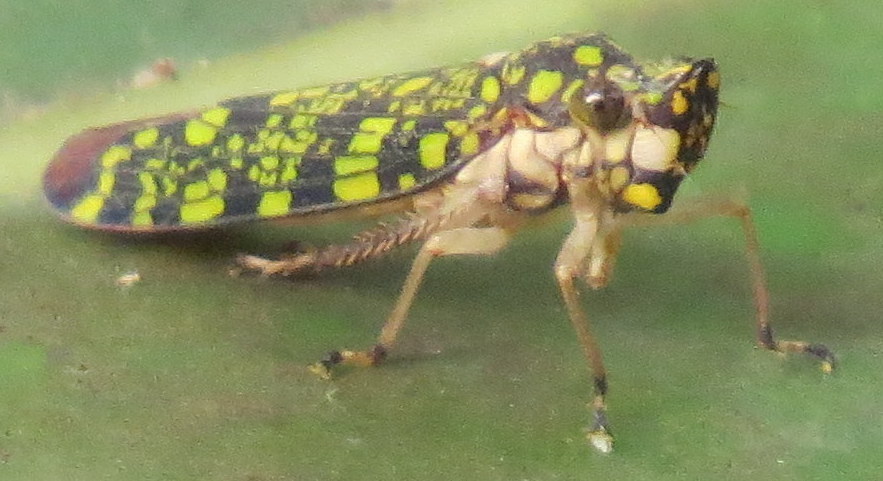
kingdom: Animalia
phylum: Arthropoda
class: Insecta
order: Hemiptera
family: Cicadellidae
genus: Paracrocampsa
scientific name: Paracrocampsa aulaeata
